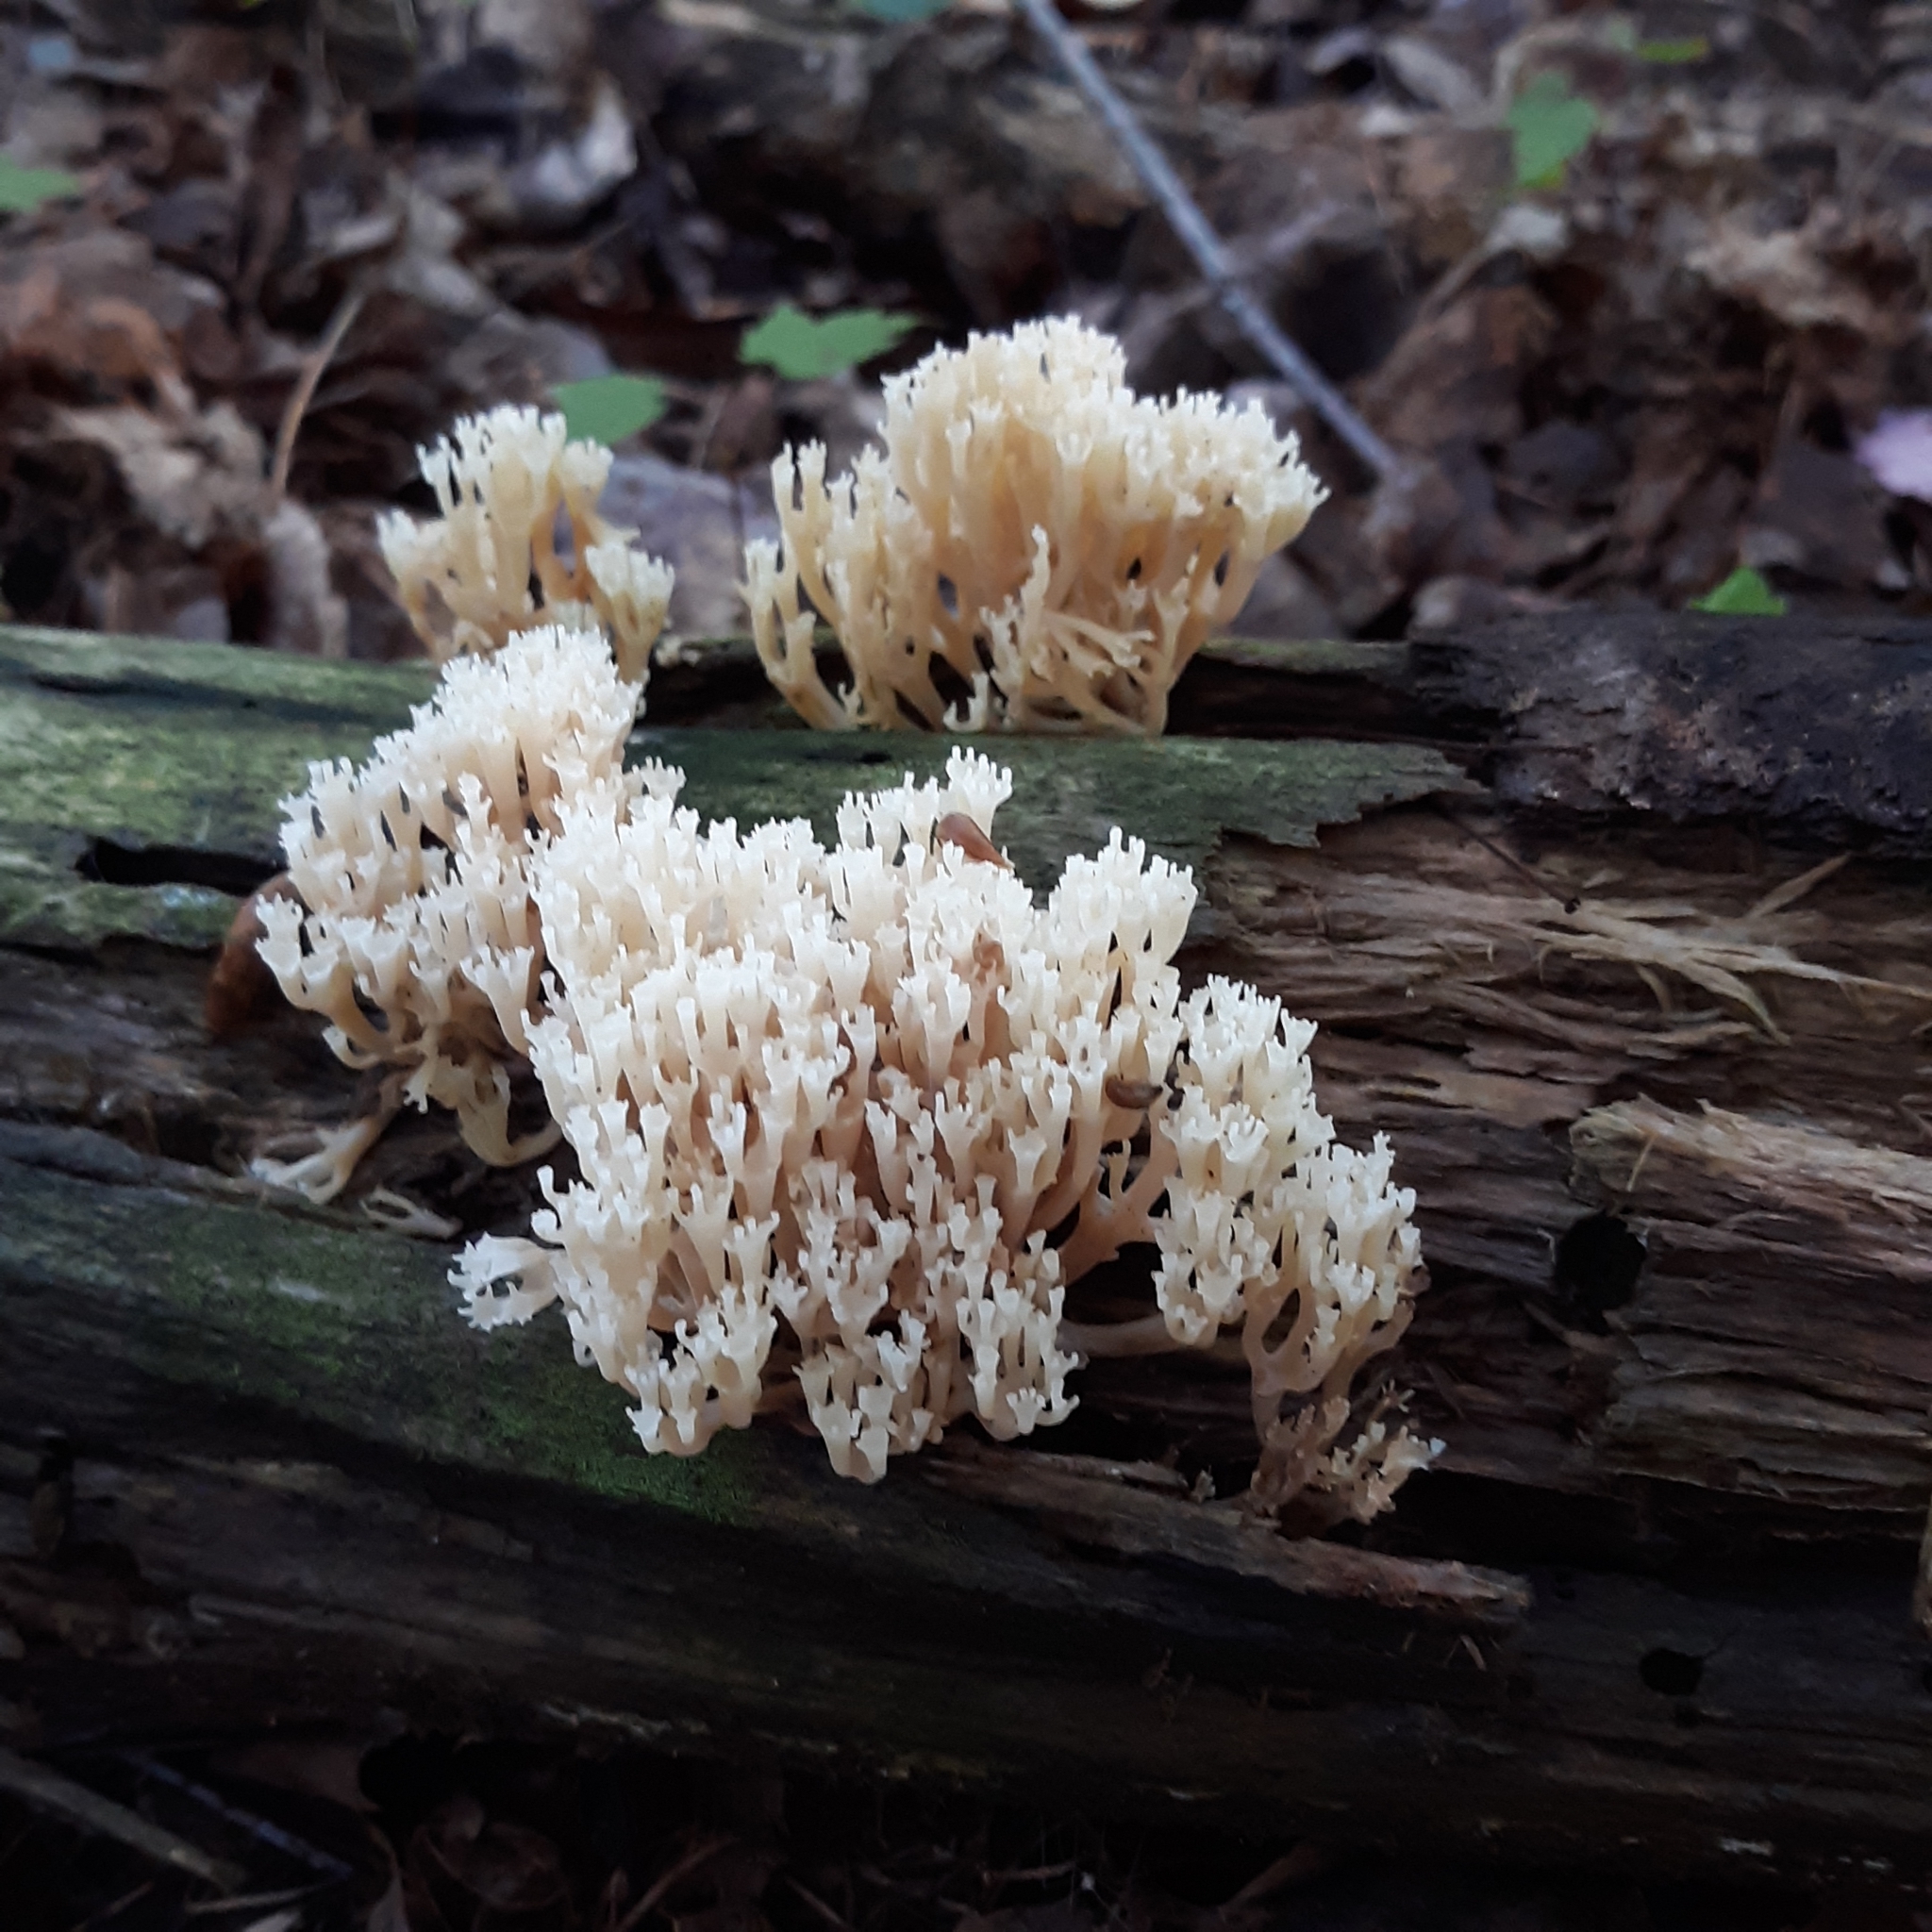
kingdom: Fungi
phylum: Basidiomycota
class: Agaricomycetes
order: Russulales
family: Auriscalpiaceae
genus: Artomyces
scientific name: Artomyces pyxidatus
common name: Crown-tipped coral fungus
